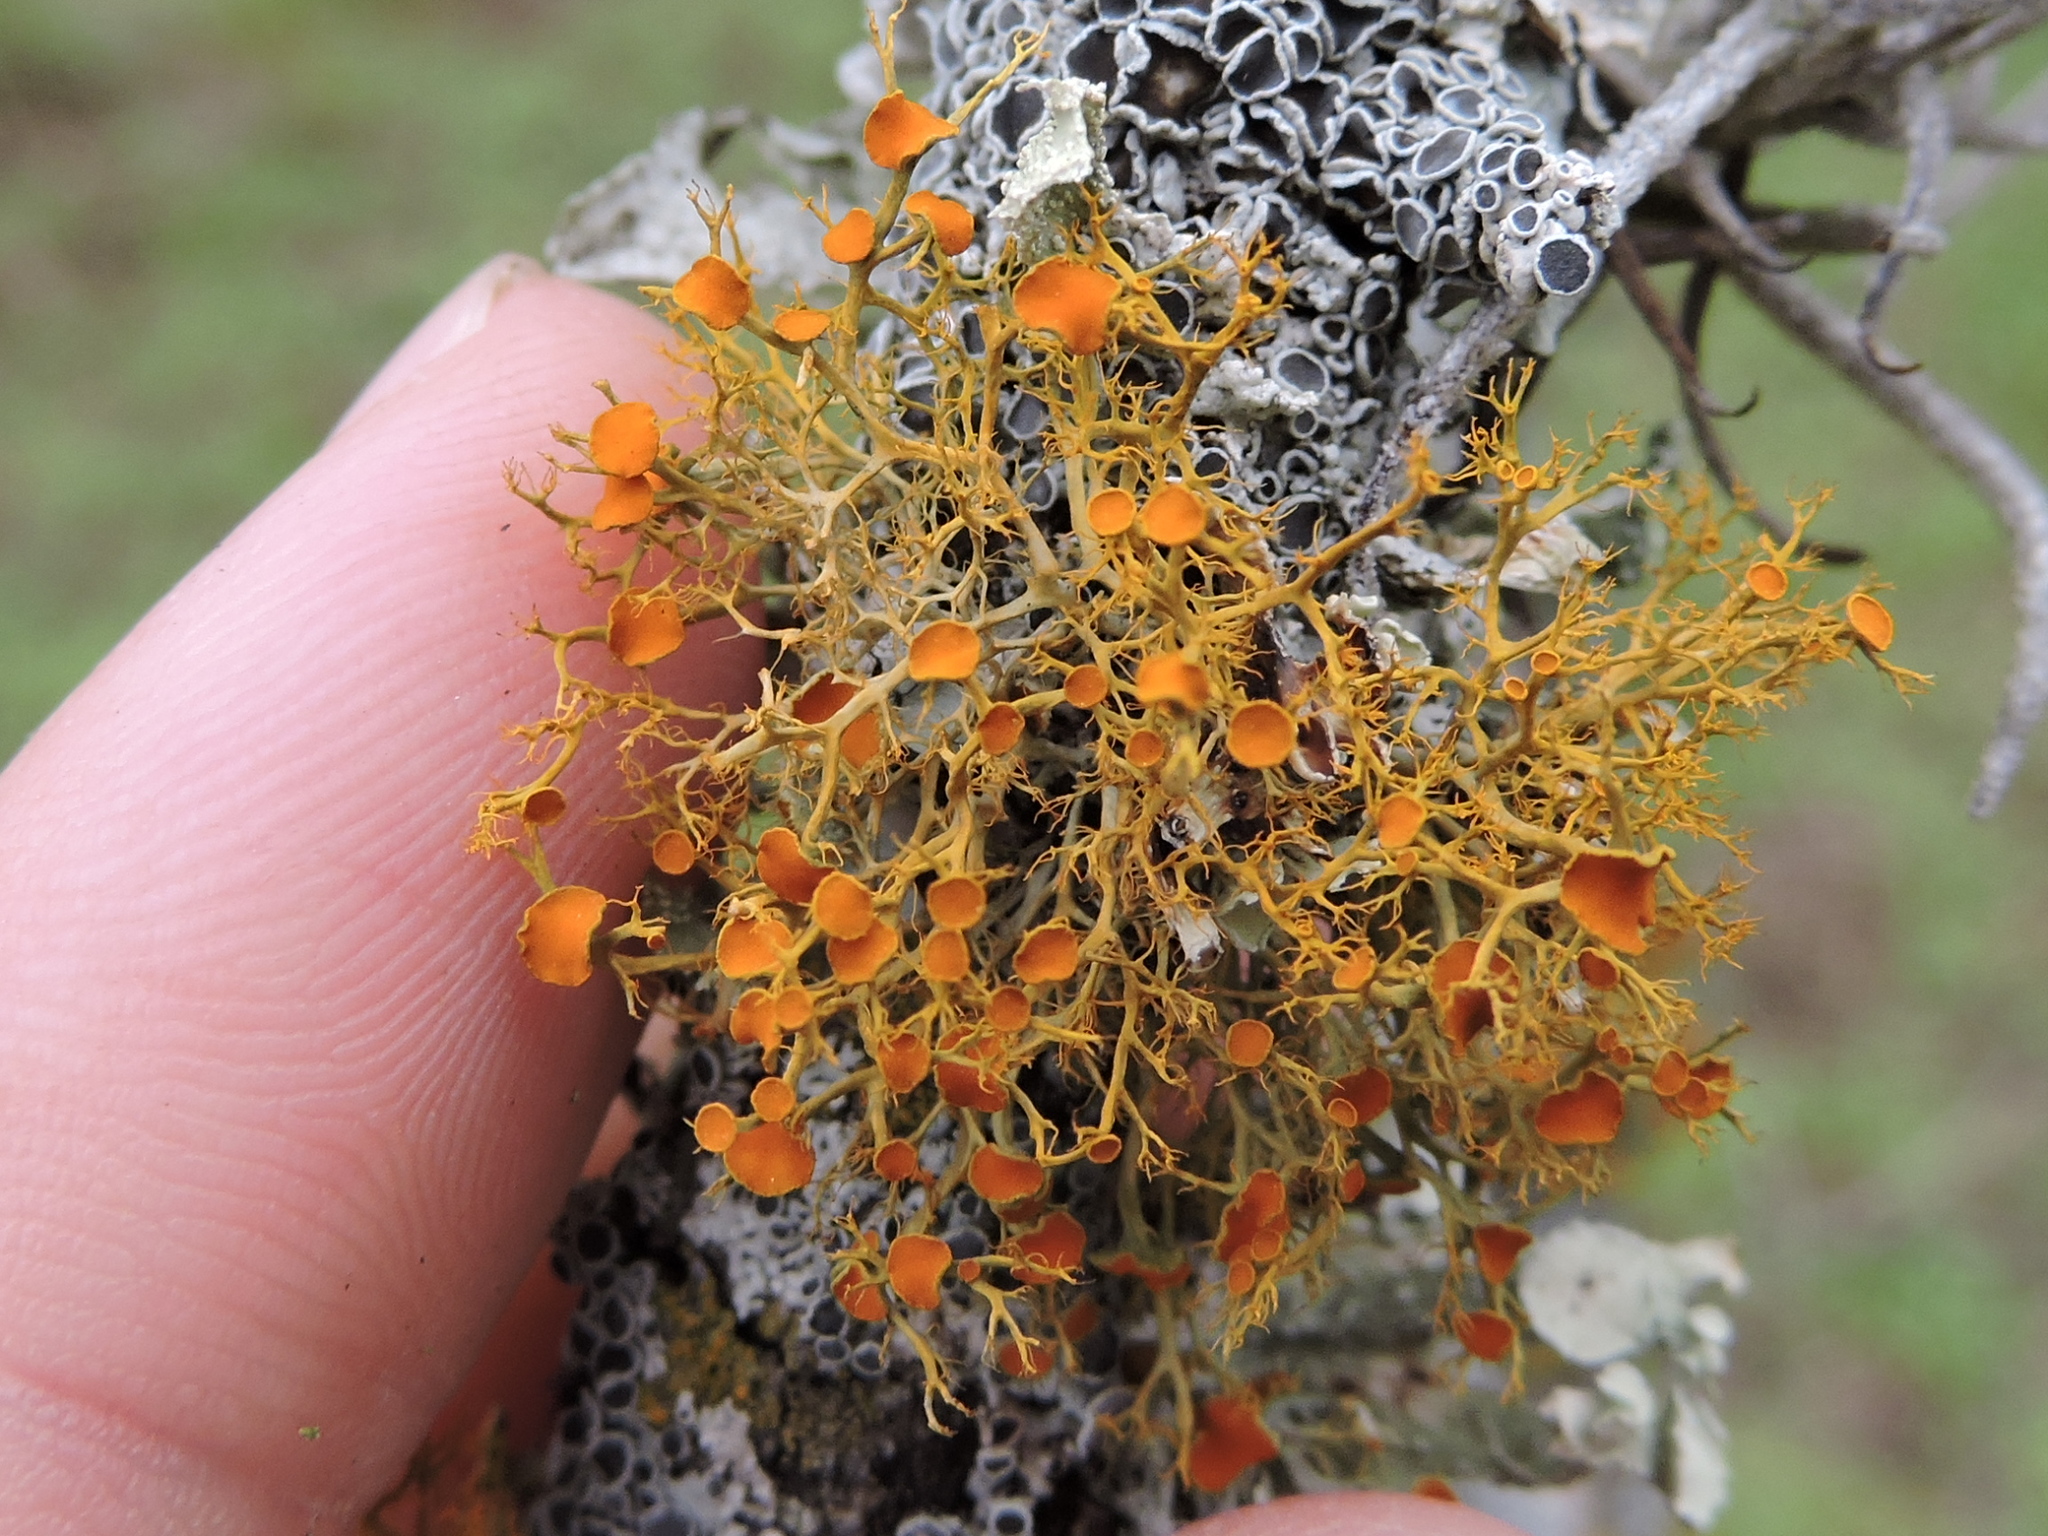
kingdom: Fungi
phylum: Ascomycota
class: Lecanoromycetes
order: Teloschistales
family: Teloschistaceae
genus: Teloschistes
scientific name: Teloschistes exilis
